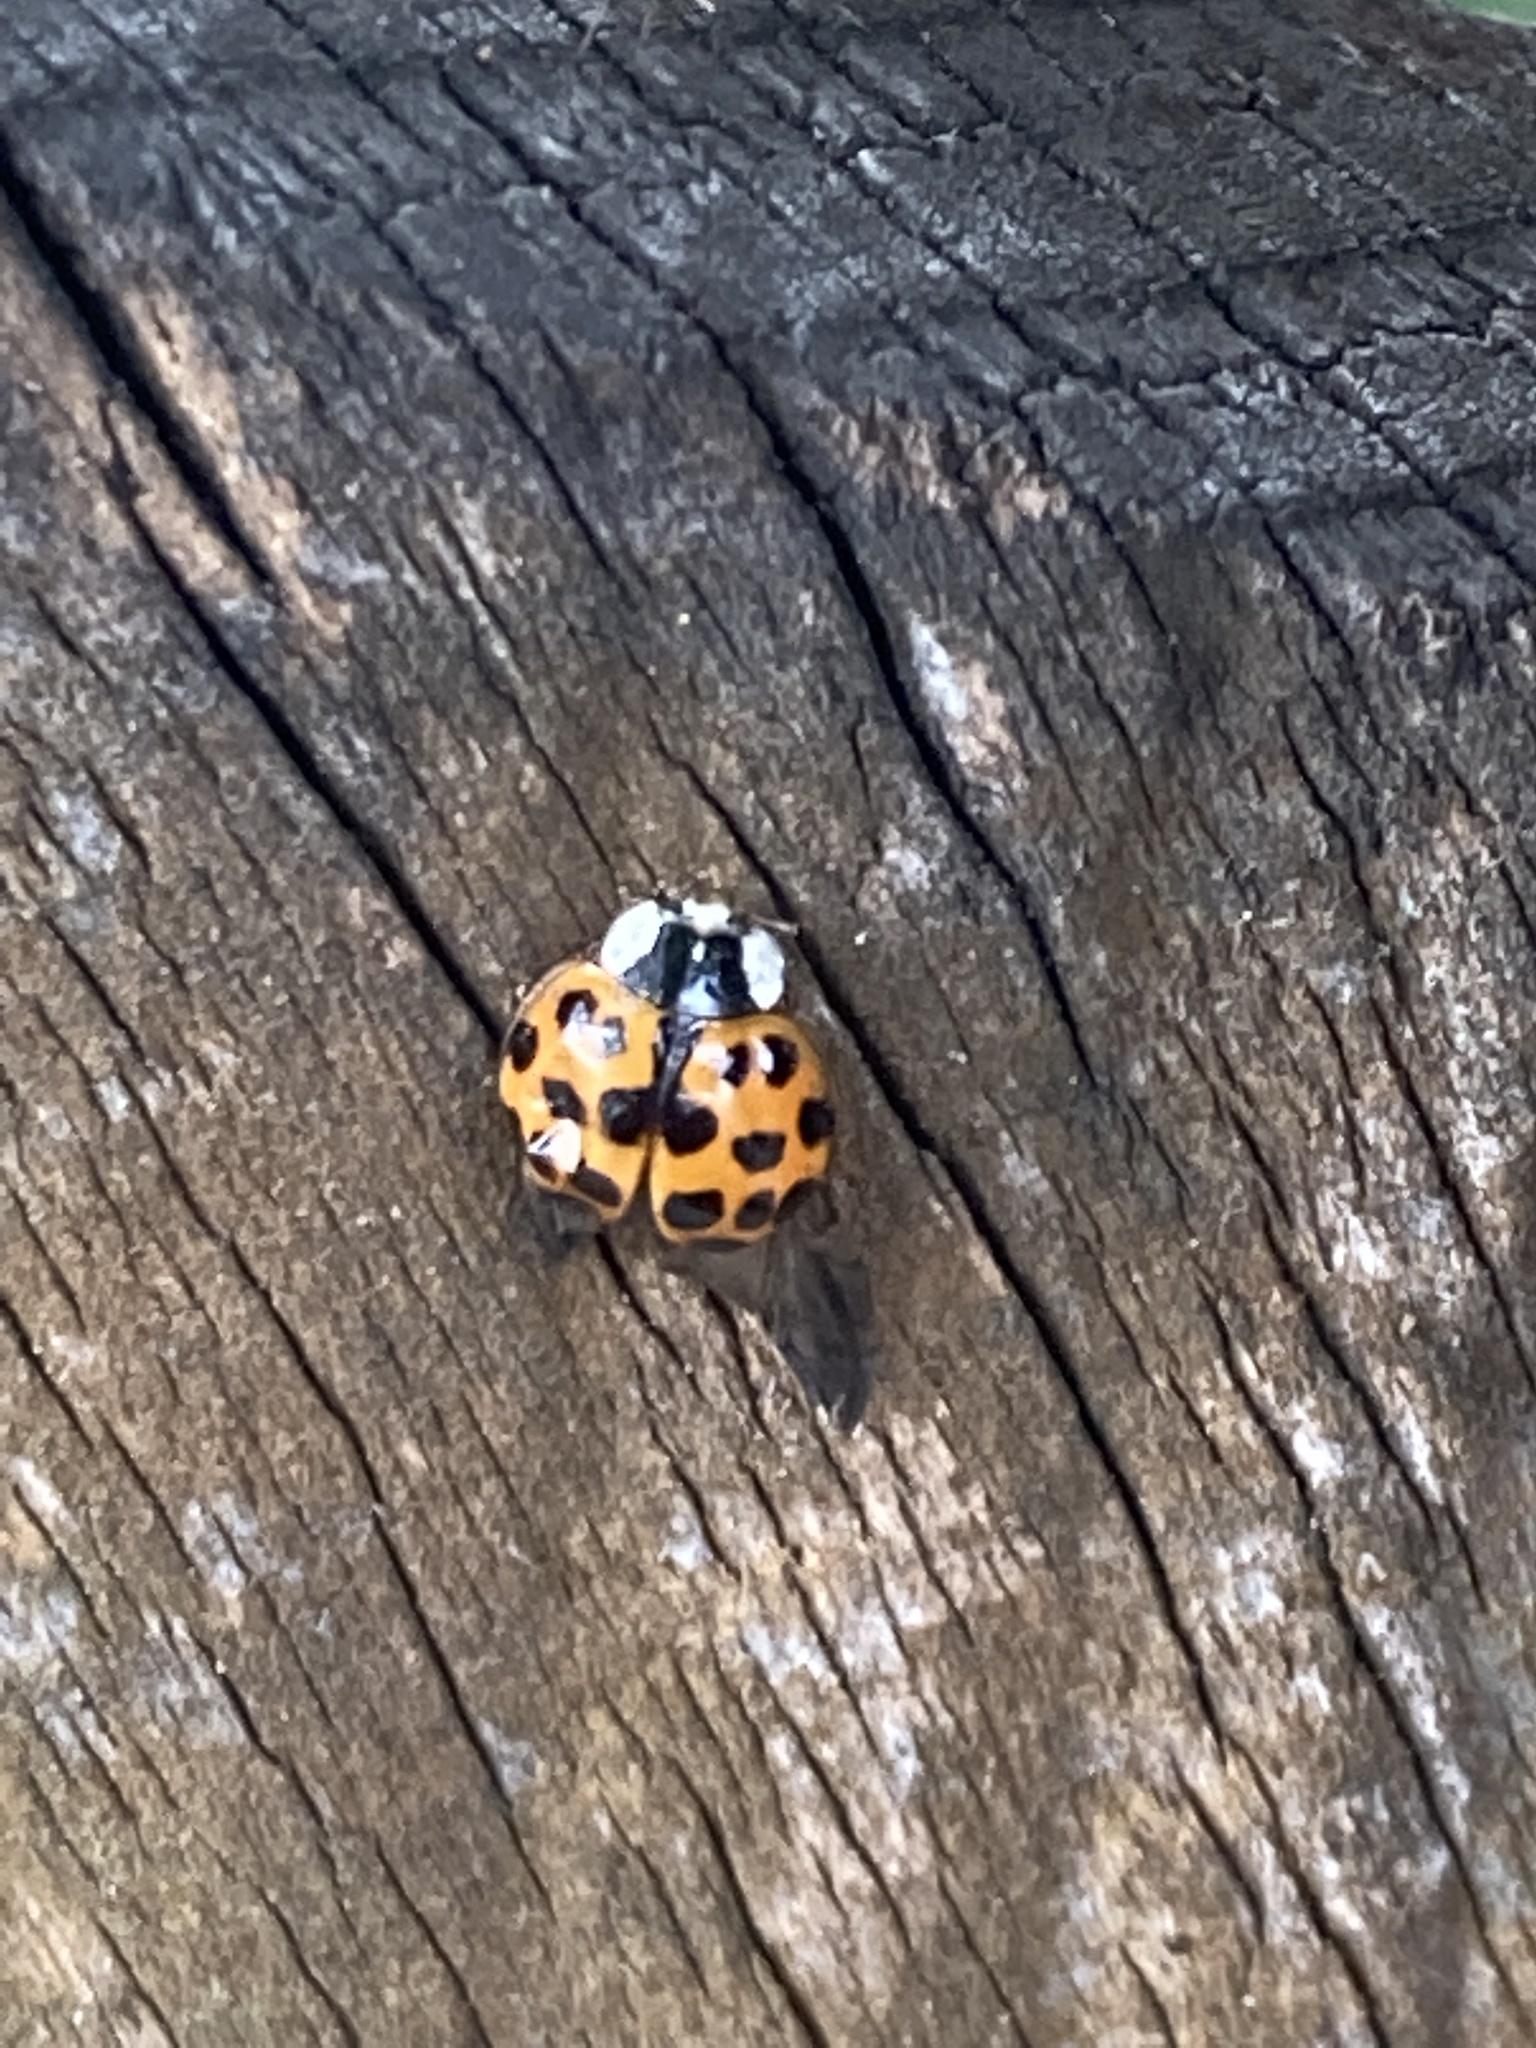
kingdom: Animalia
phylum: Arthropoda
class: Insecta
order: Coleoptera
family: Coccinellidae
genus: Harmonia
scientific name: Harmonia axyridis
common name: Harlequin ladybird
